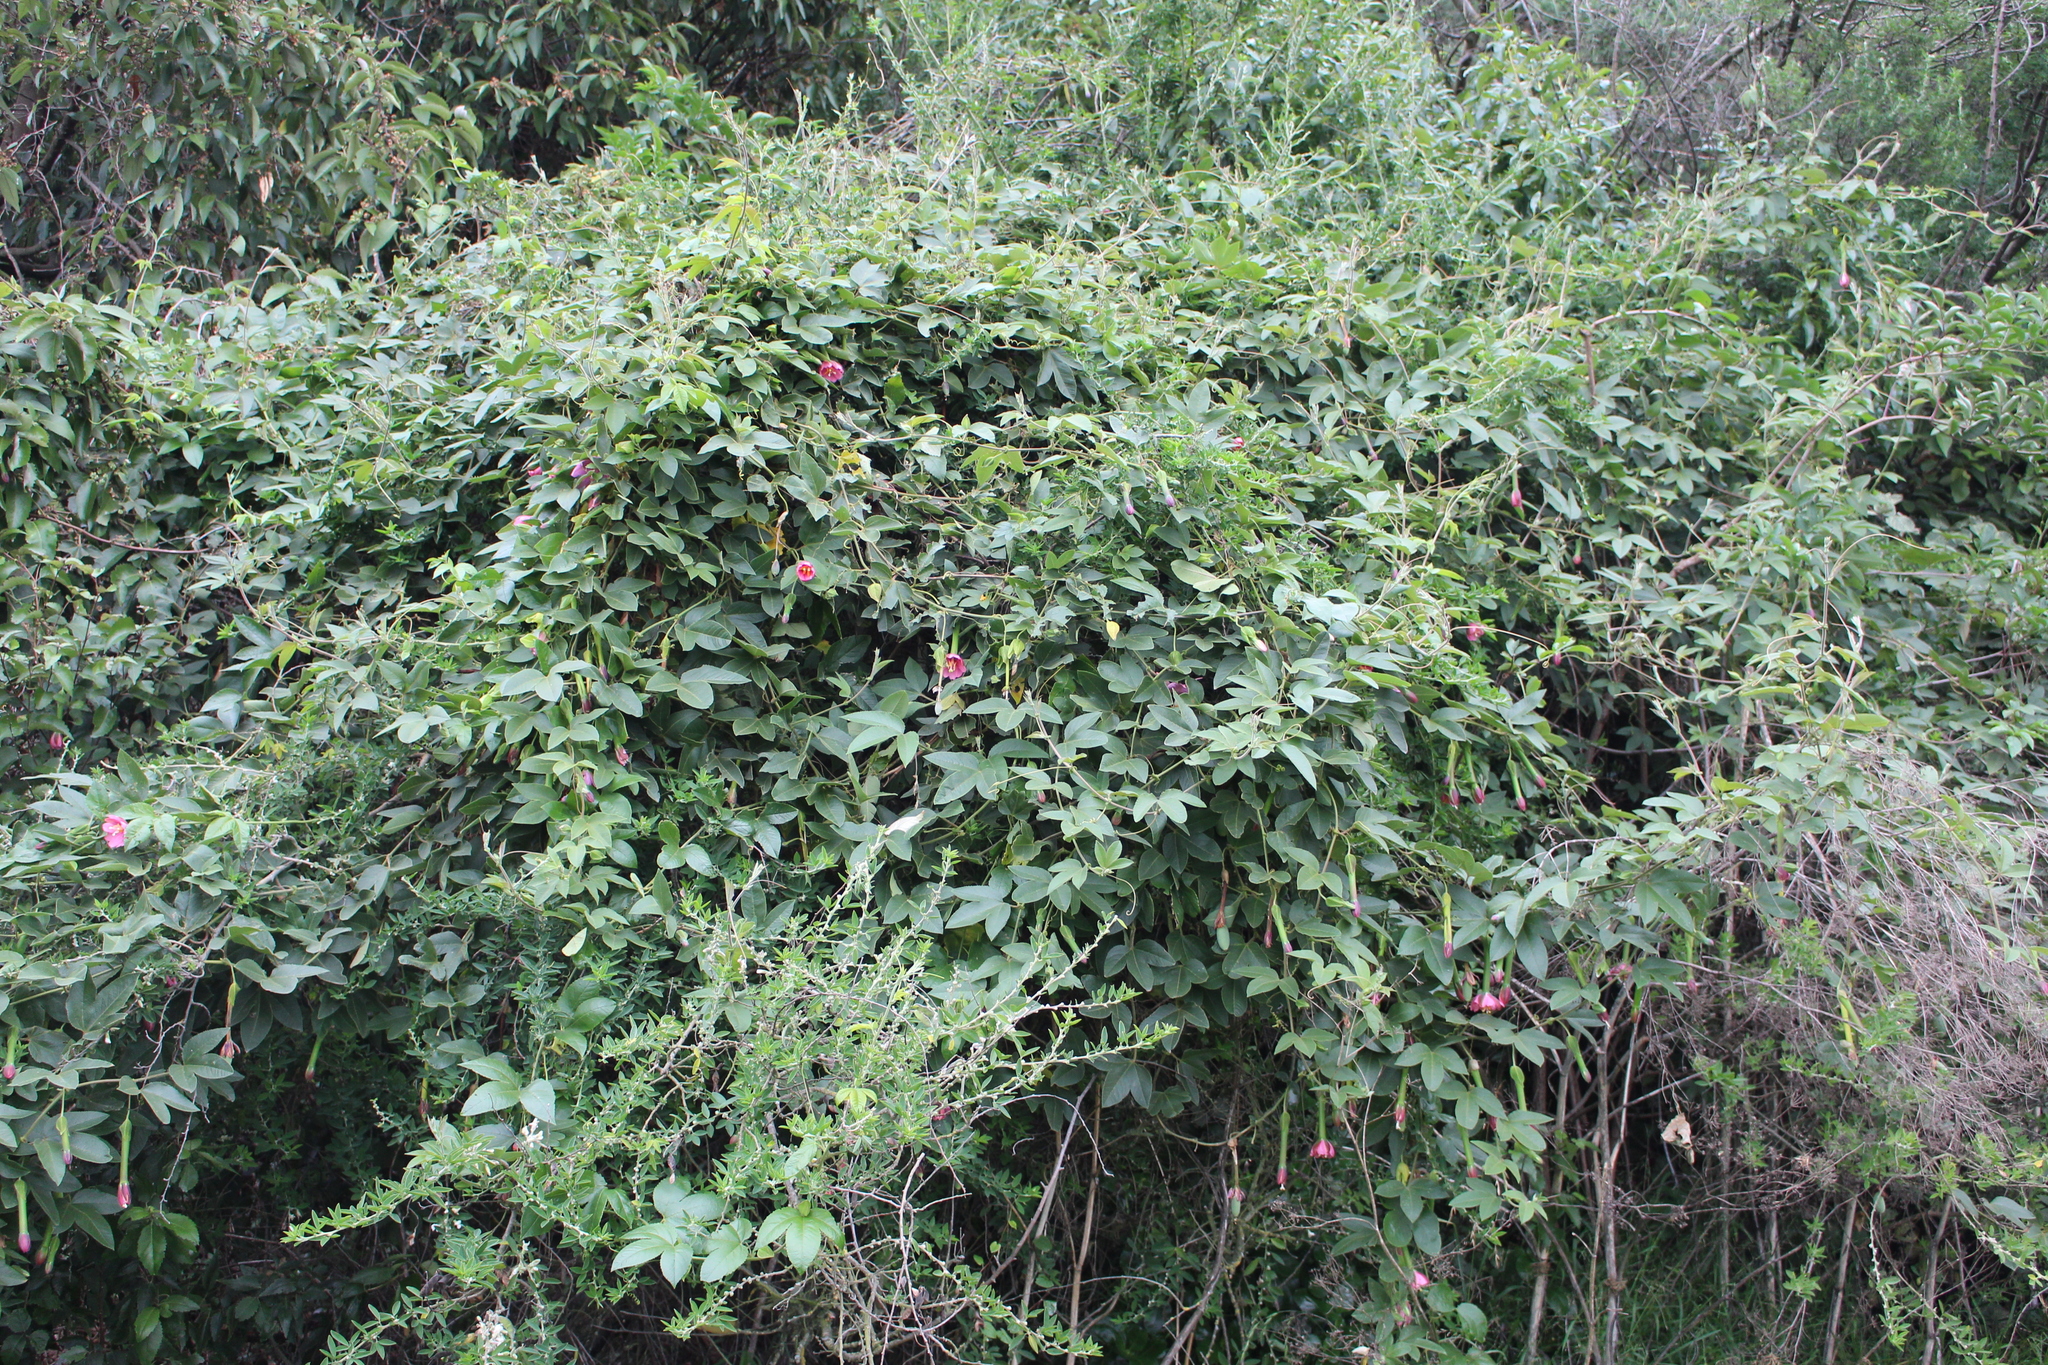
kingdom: Plantae
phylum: Tracheophyta
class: Magnoliopsida
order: Malpighiales
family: Passifloraceae
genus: Passiflora
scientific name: Passiflora tripartita
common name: Banana poka
